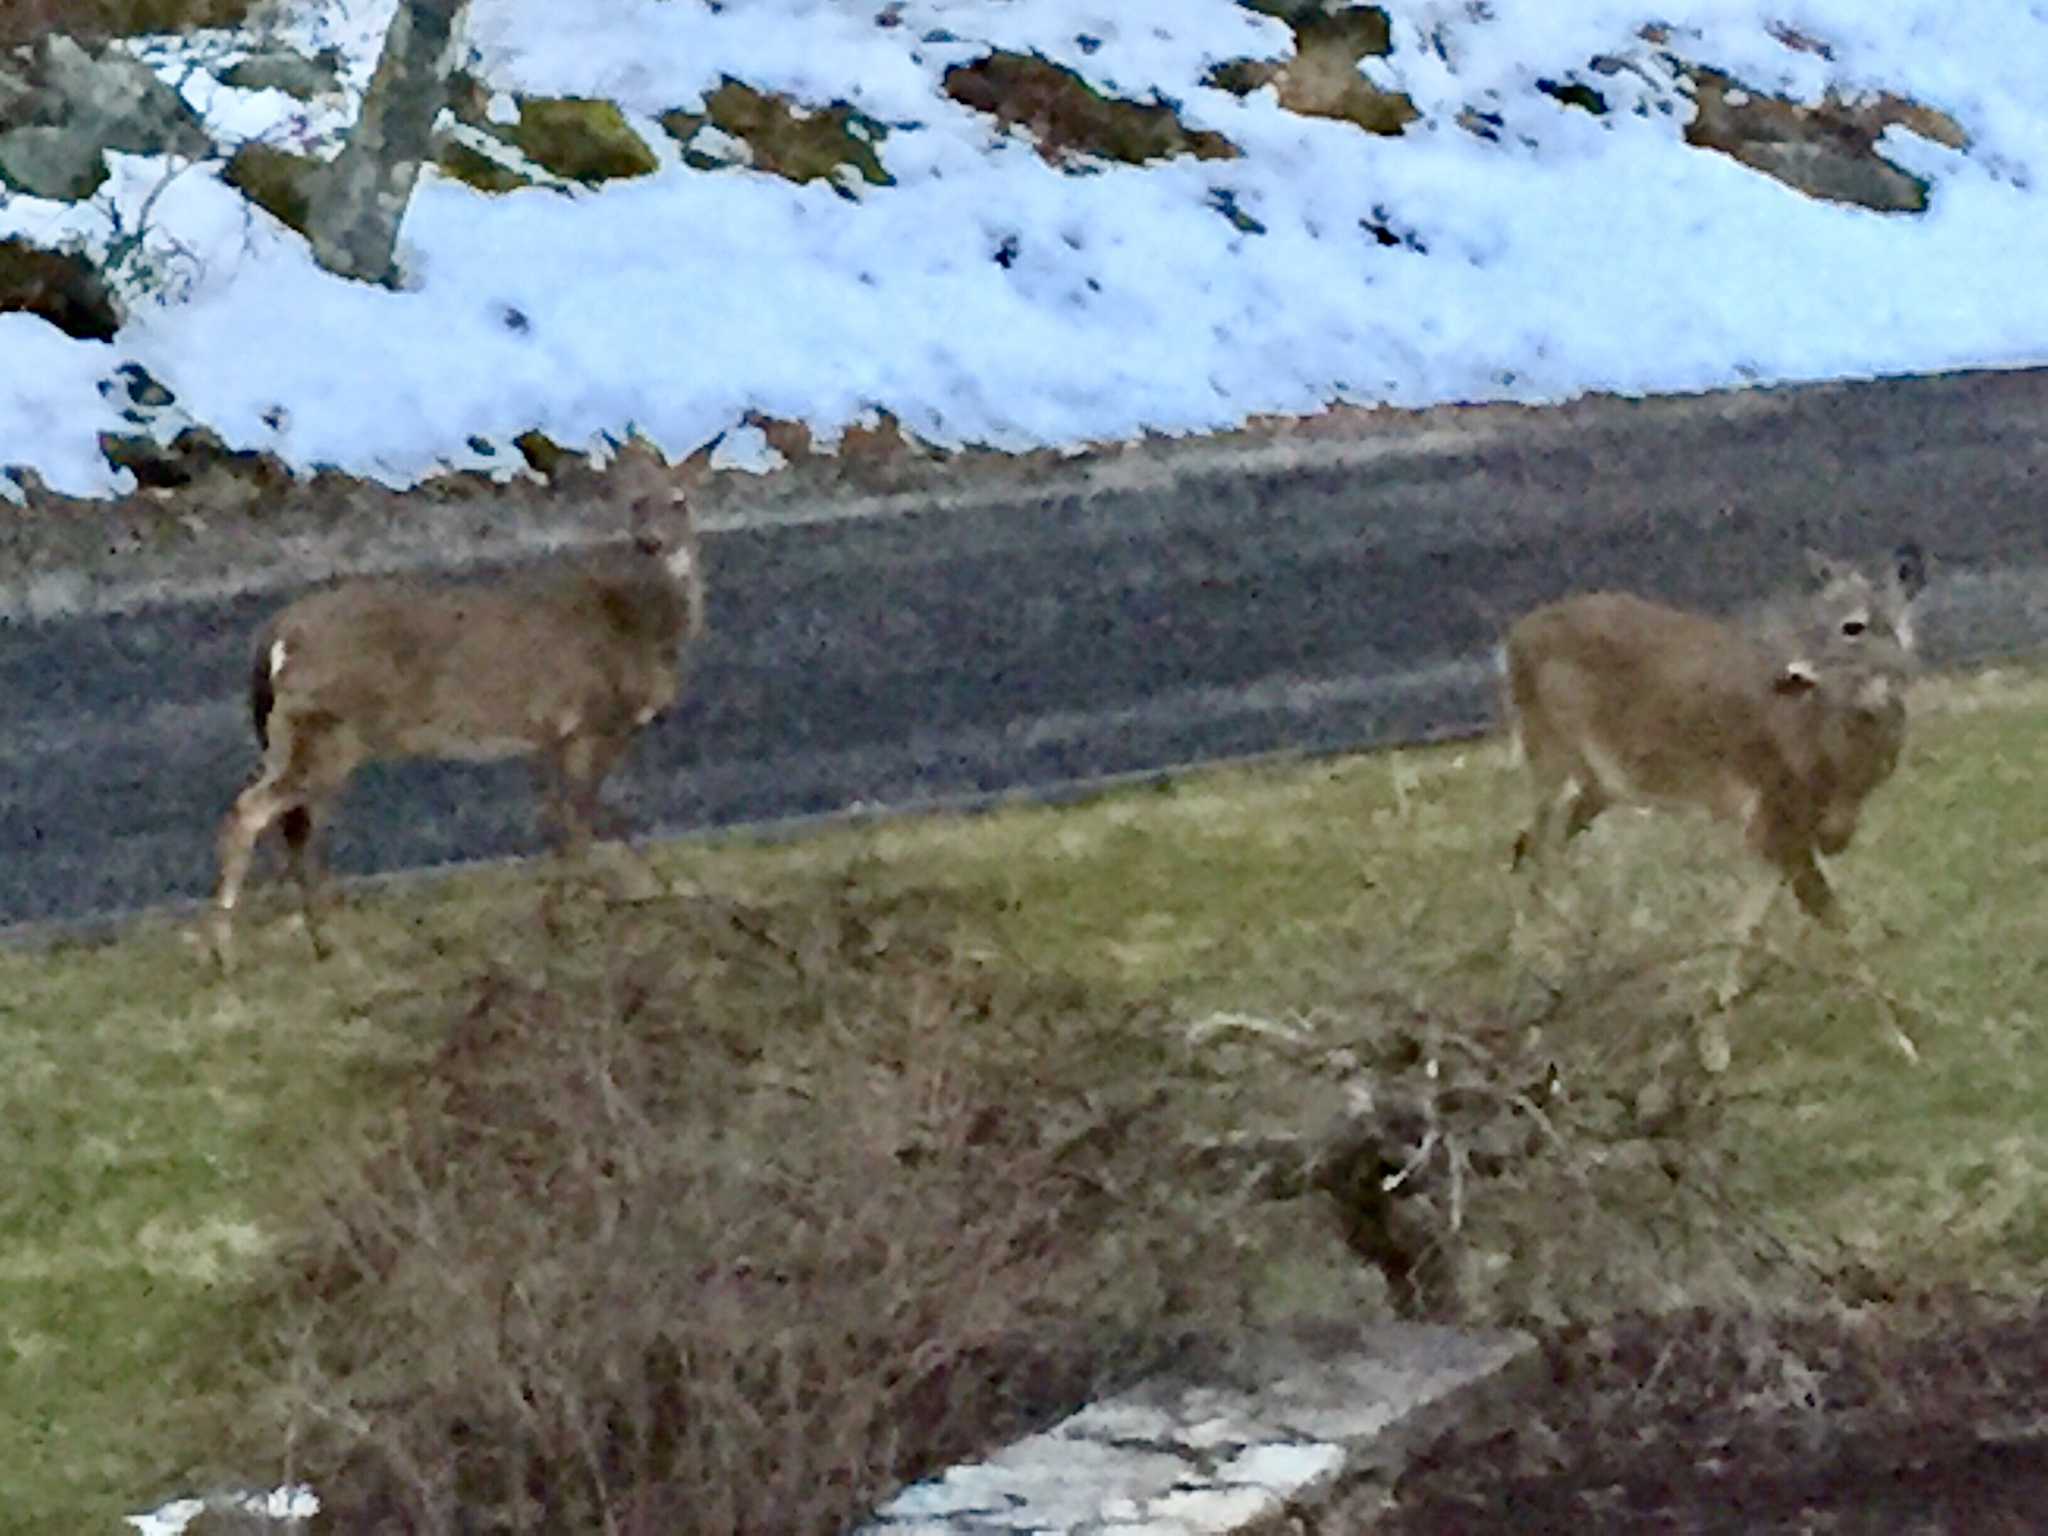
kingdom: Animalia
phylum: Chordata
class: Mammalia
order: Artiodactyla
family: Cervidae
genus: Odocoileus
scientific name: Odocoileus virginianus
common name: White-tailed deer
